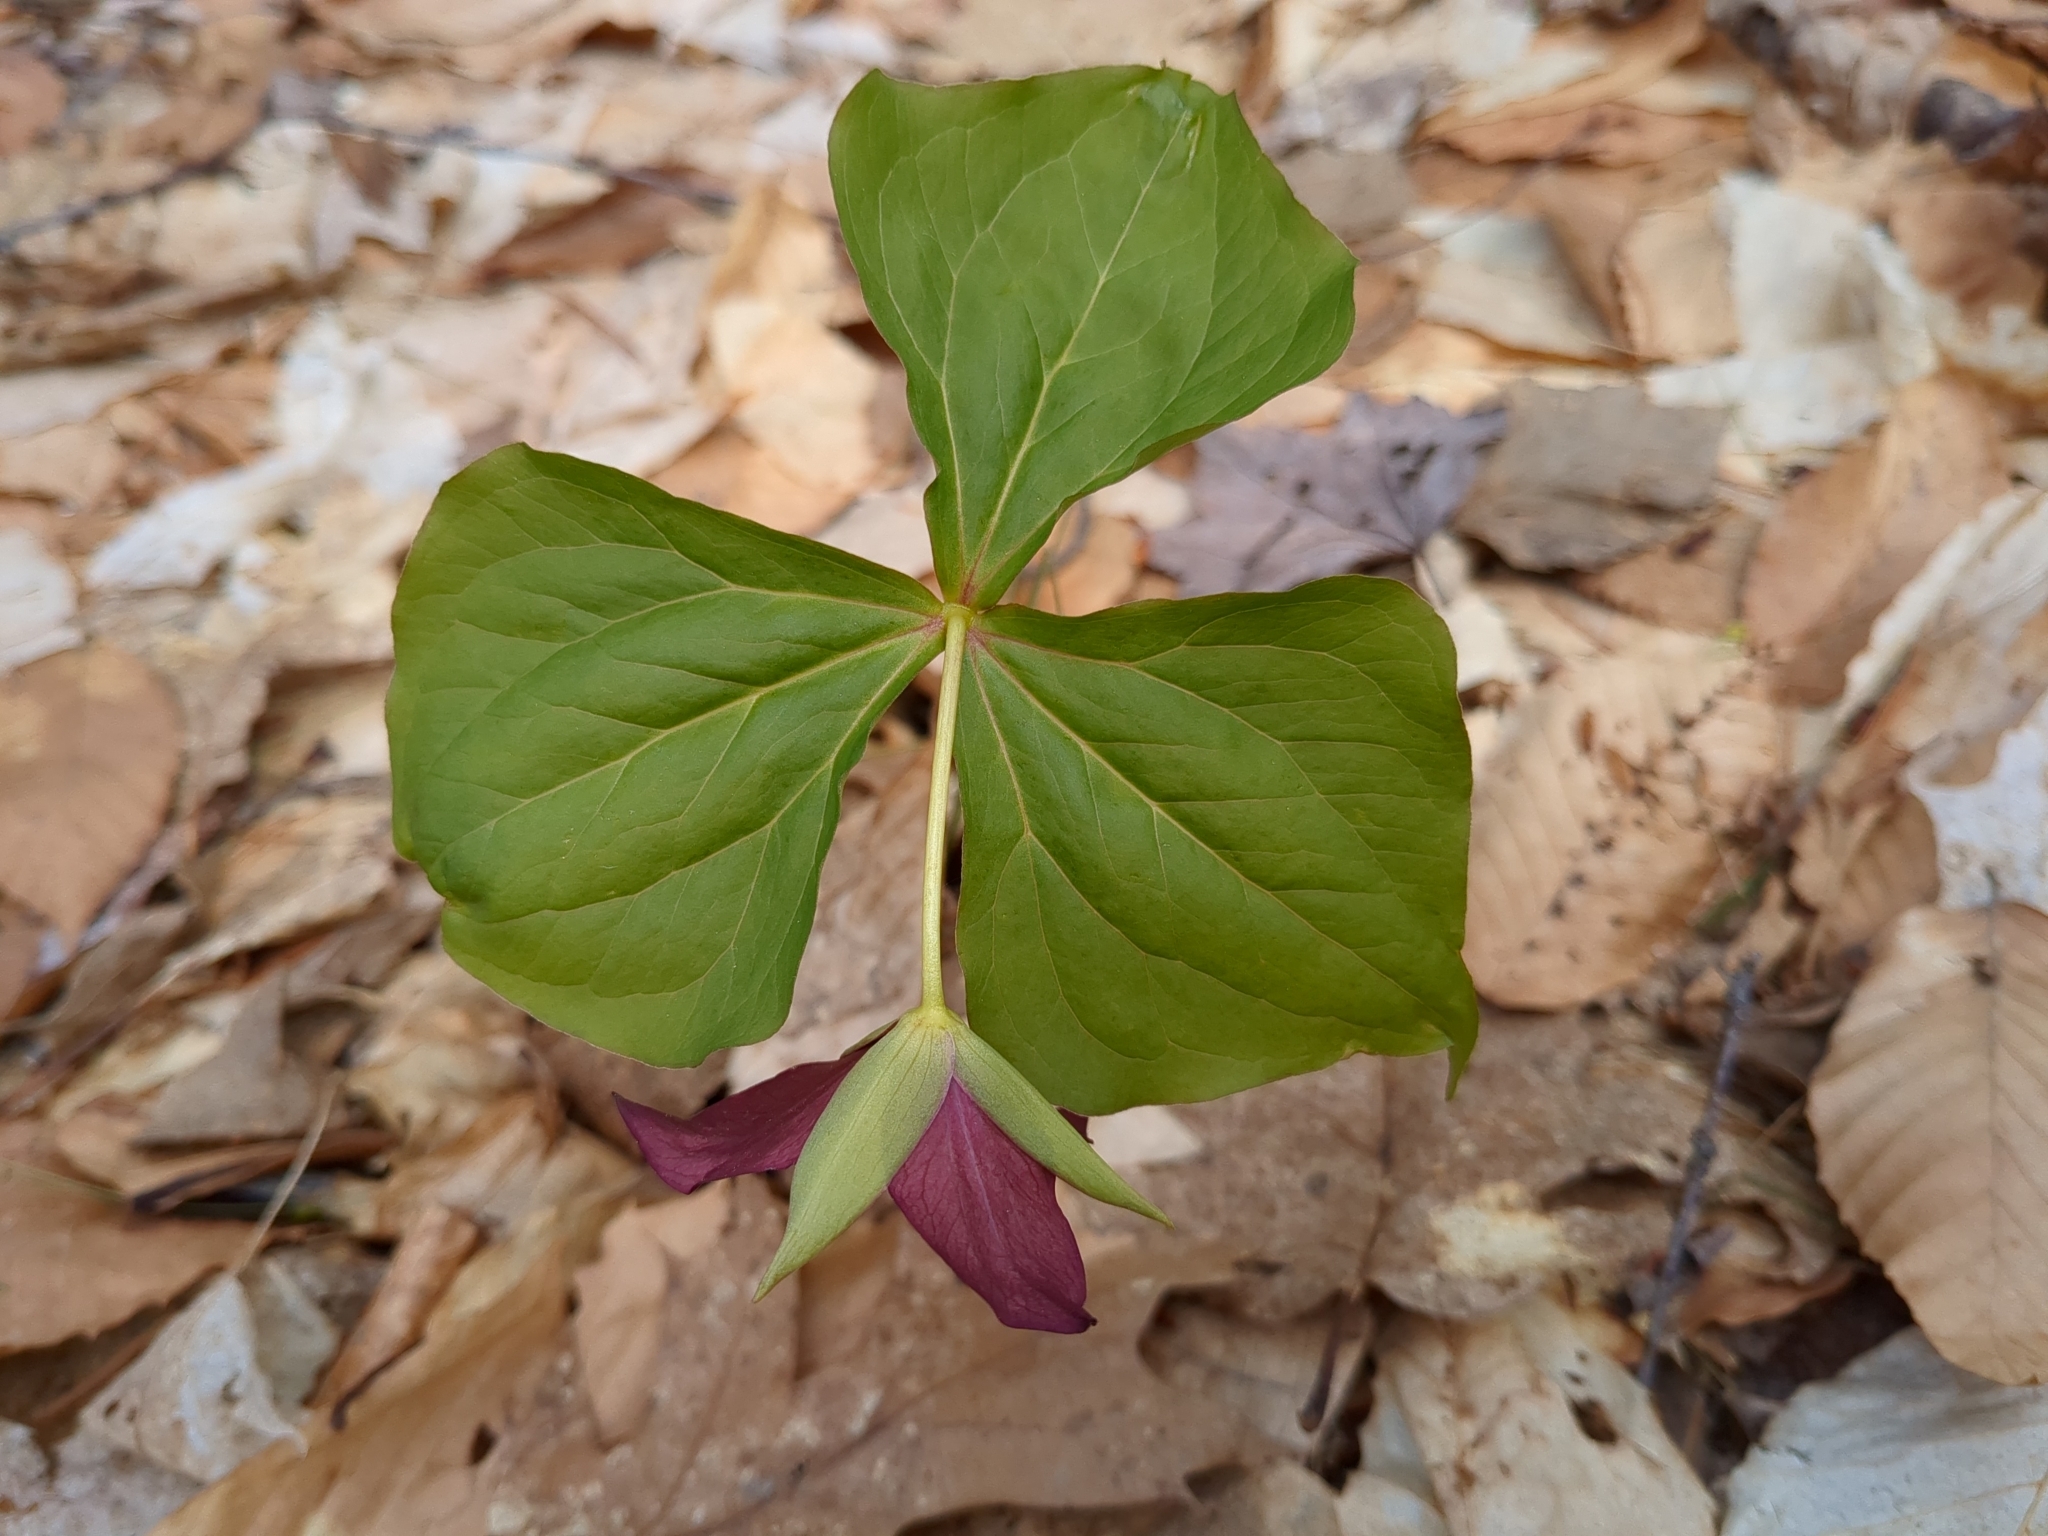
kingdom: Plantae
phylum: Tracheophyta
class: Liliopsida
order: Liliales
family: Melanthiaceae
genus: Trillium
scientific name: Trillium erectum
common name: Purple trillium
